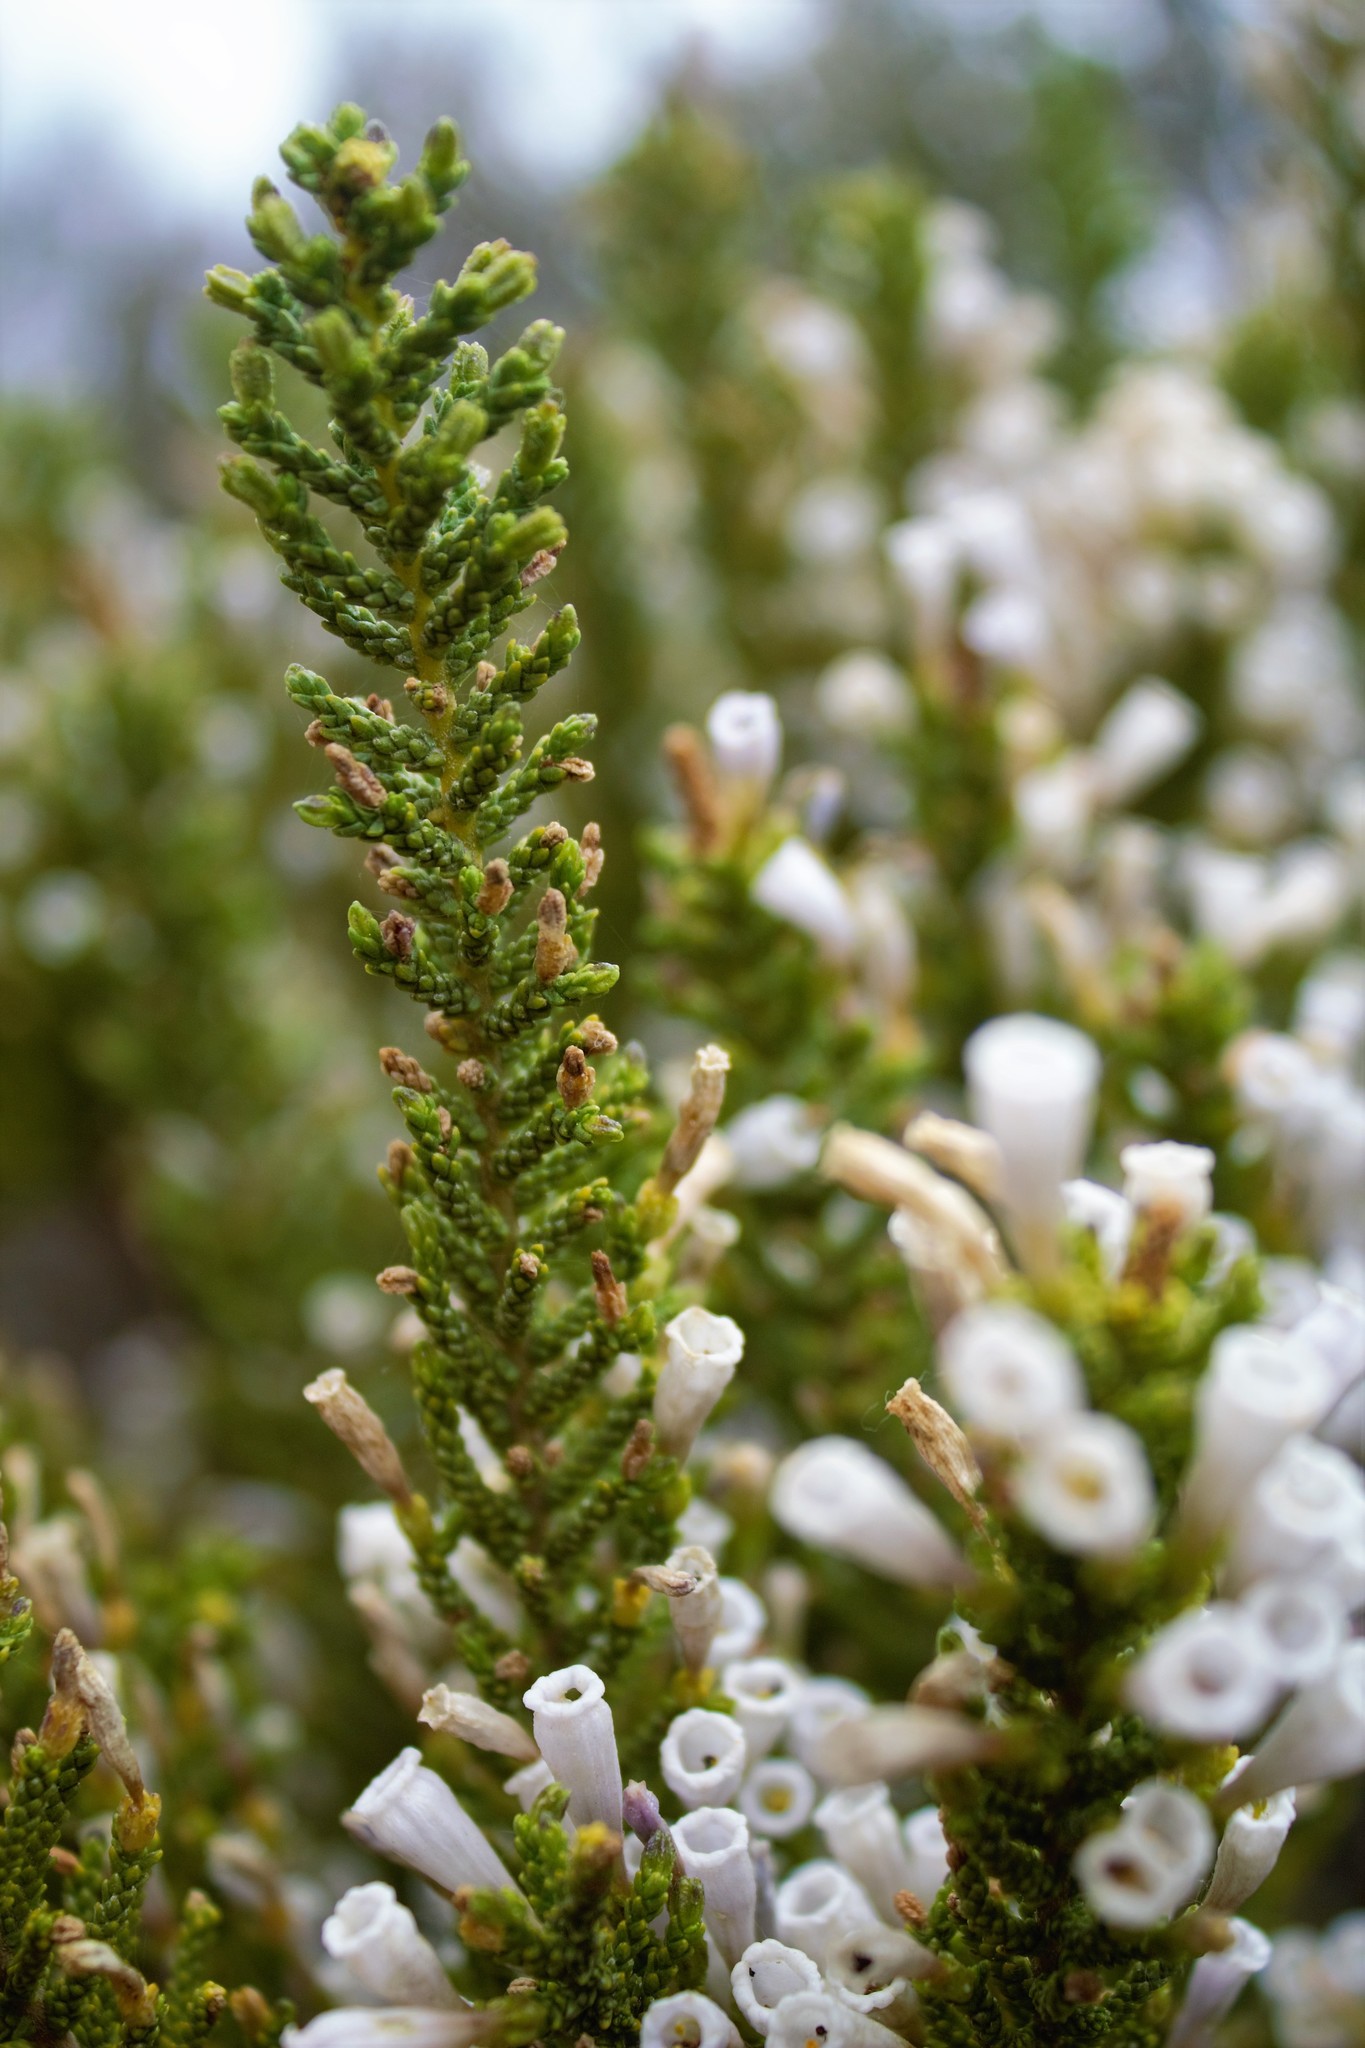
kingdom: Plantae
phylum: Tracheophyta
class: Magnoliopsida
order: Solanales
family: Solanaceae
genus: Fabiana
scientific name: Fabiana imbricata
